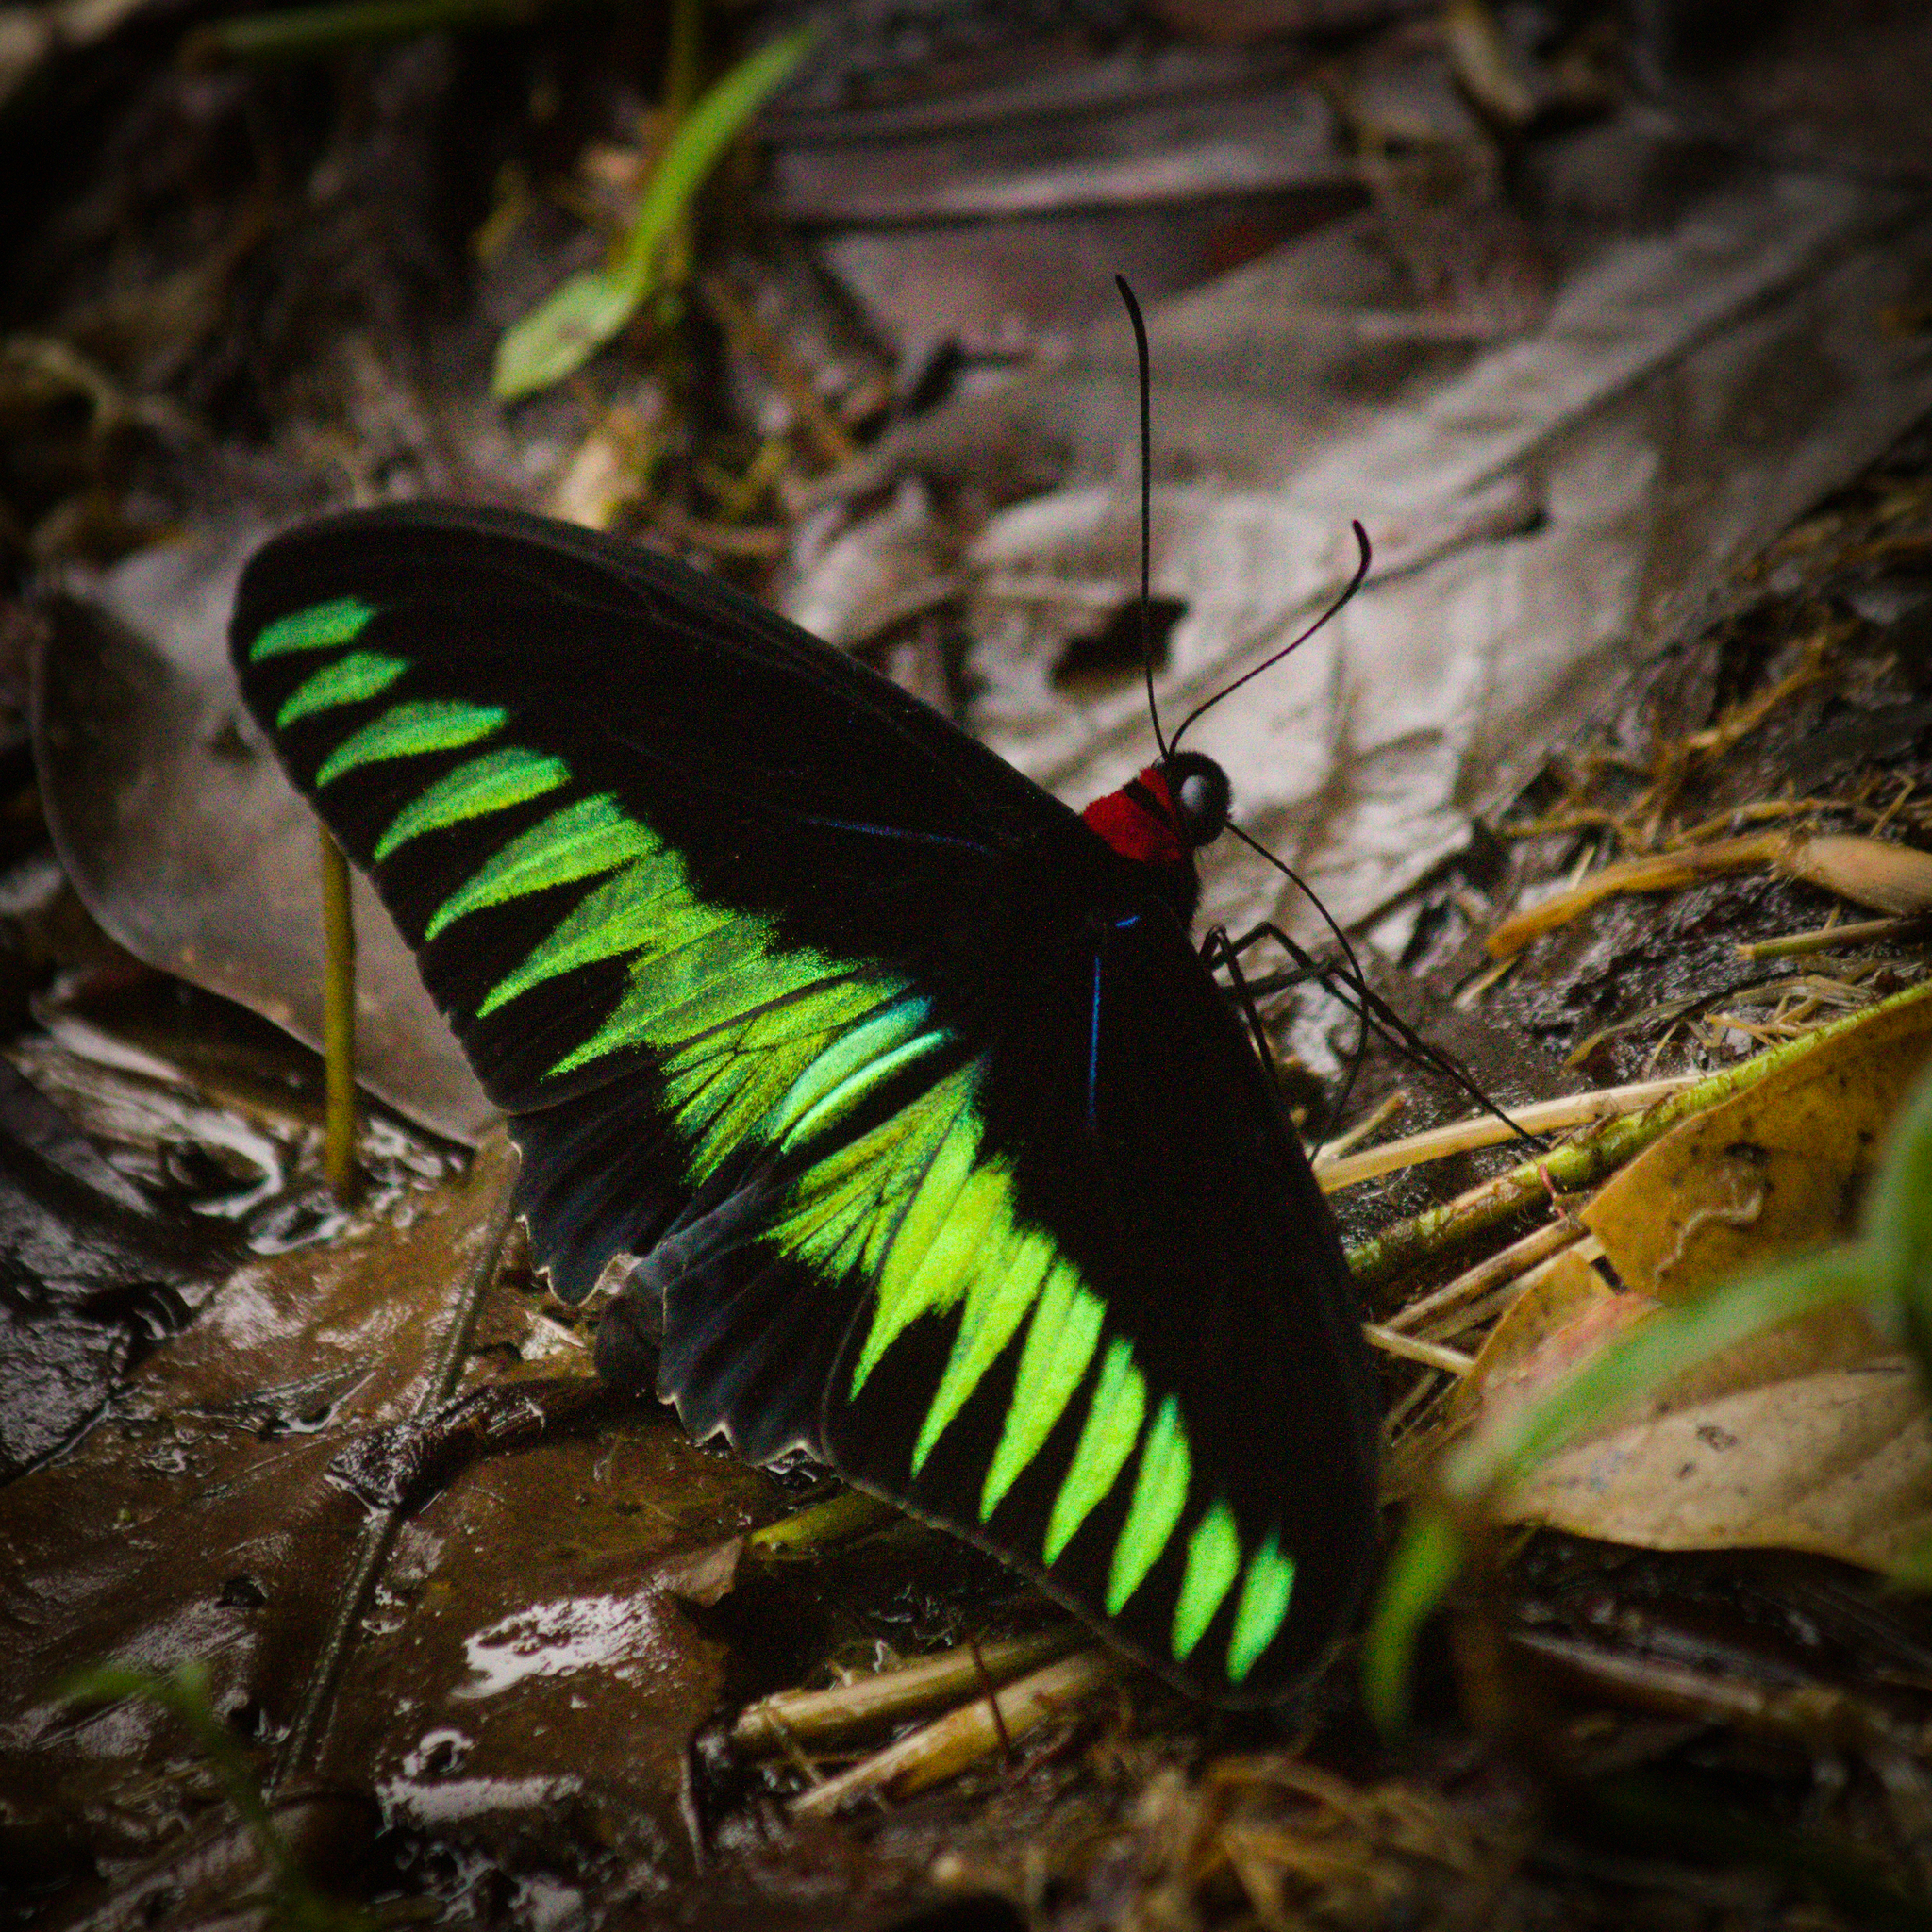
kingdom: Animalia
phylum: Arthropoda
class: Insecta
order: Lepidoptera
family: Papilionidae
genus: Trogonoptera
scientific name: Trogonoptera brookiana
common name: Raja brooke's birdwing
